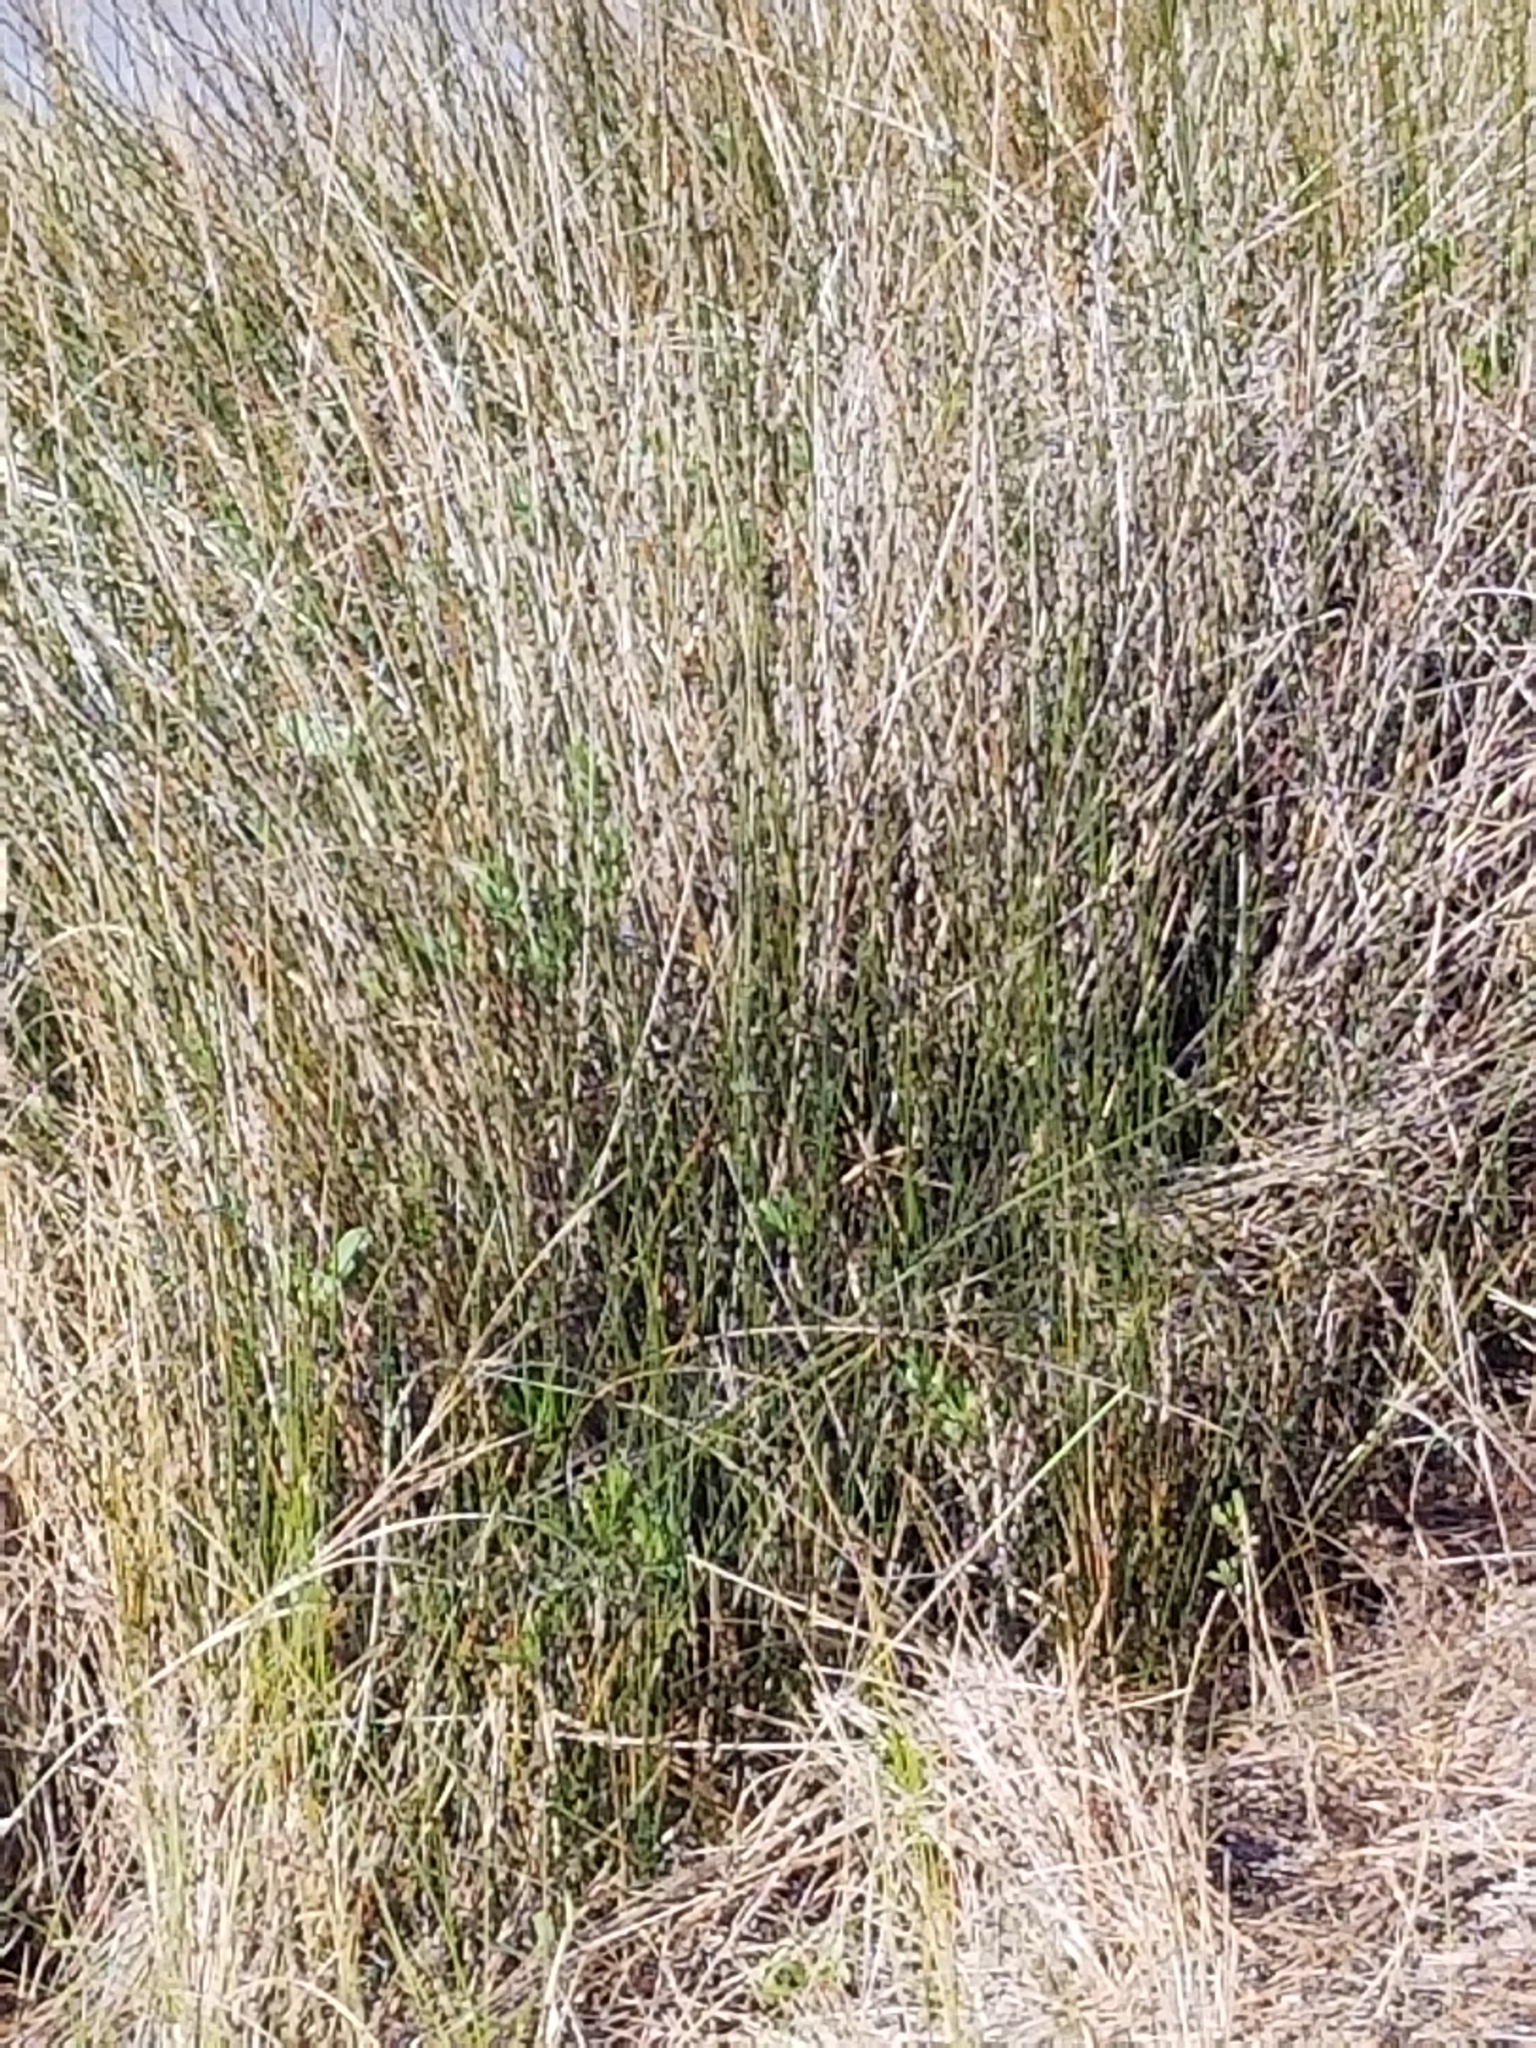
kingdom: Plantae
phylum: Tracheophyta
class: Liliopsida
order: Poales
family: Juncaceae
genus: Juncus
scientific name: Juncus roemerianus
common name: Roemer's rush
